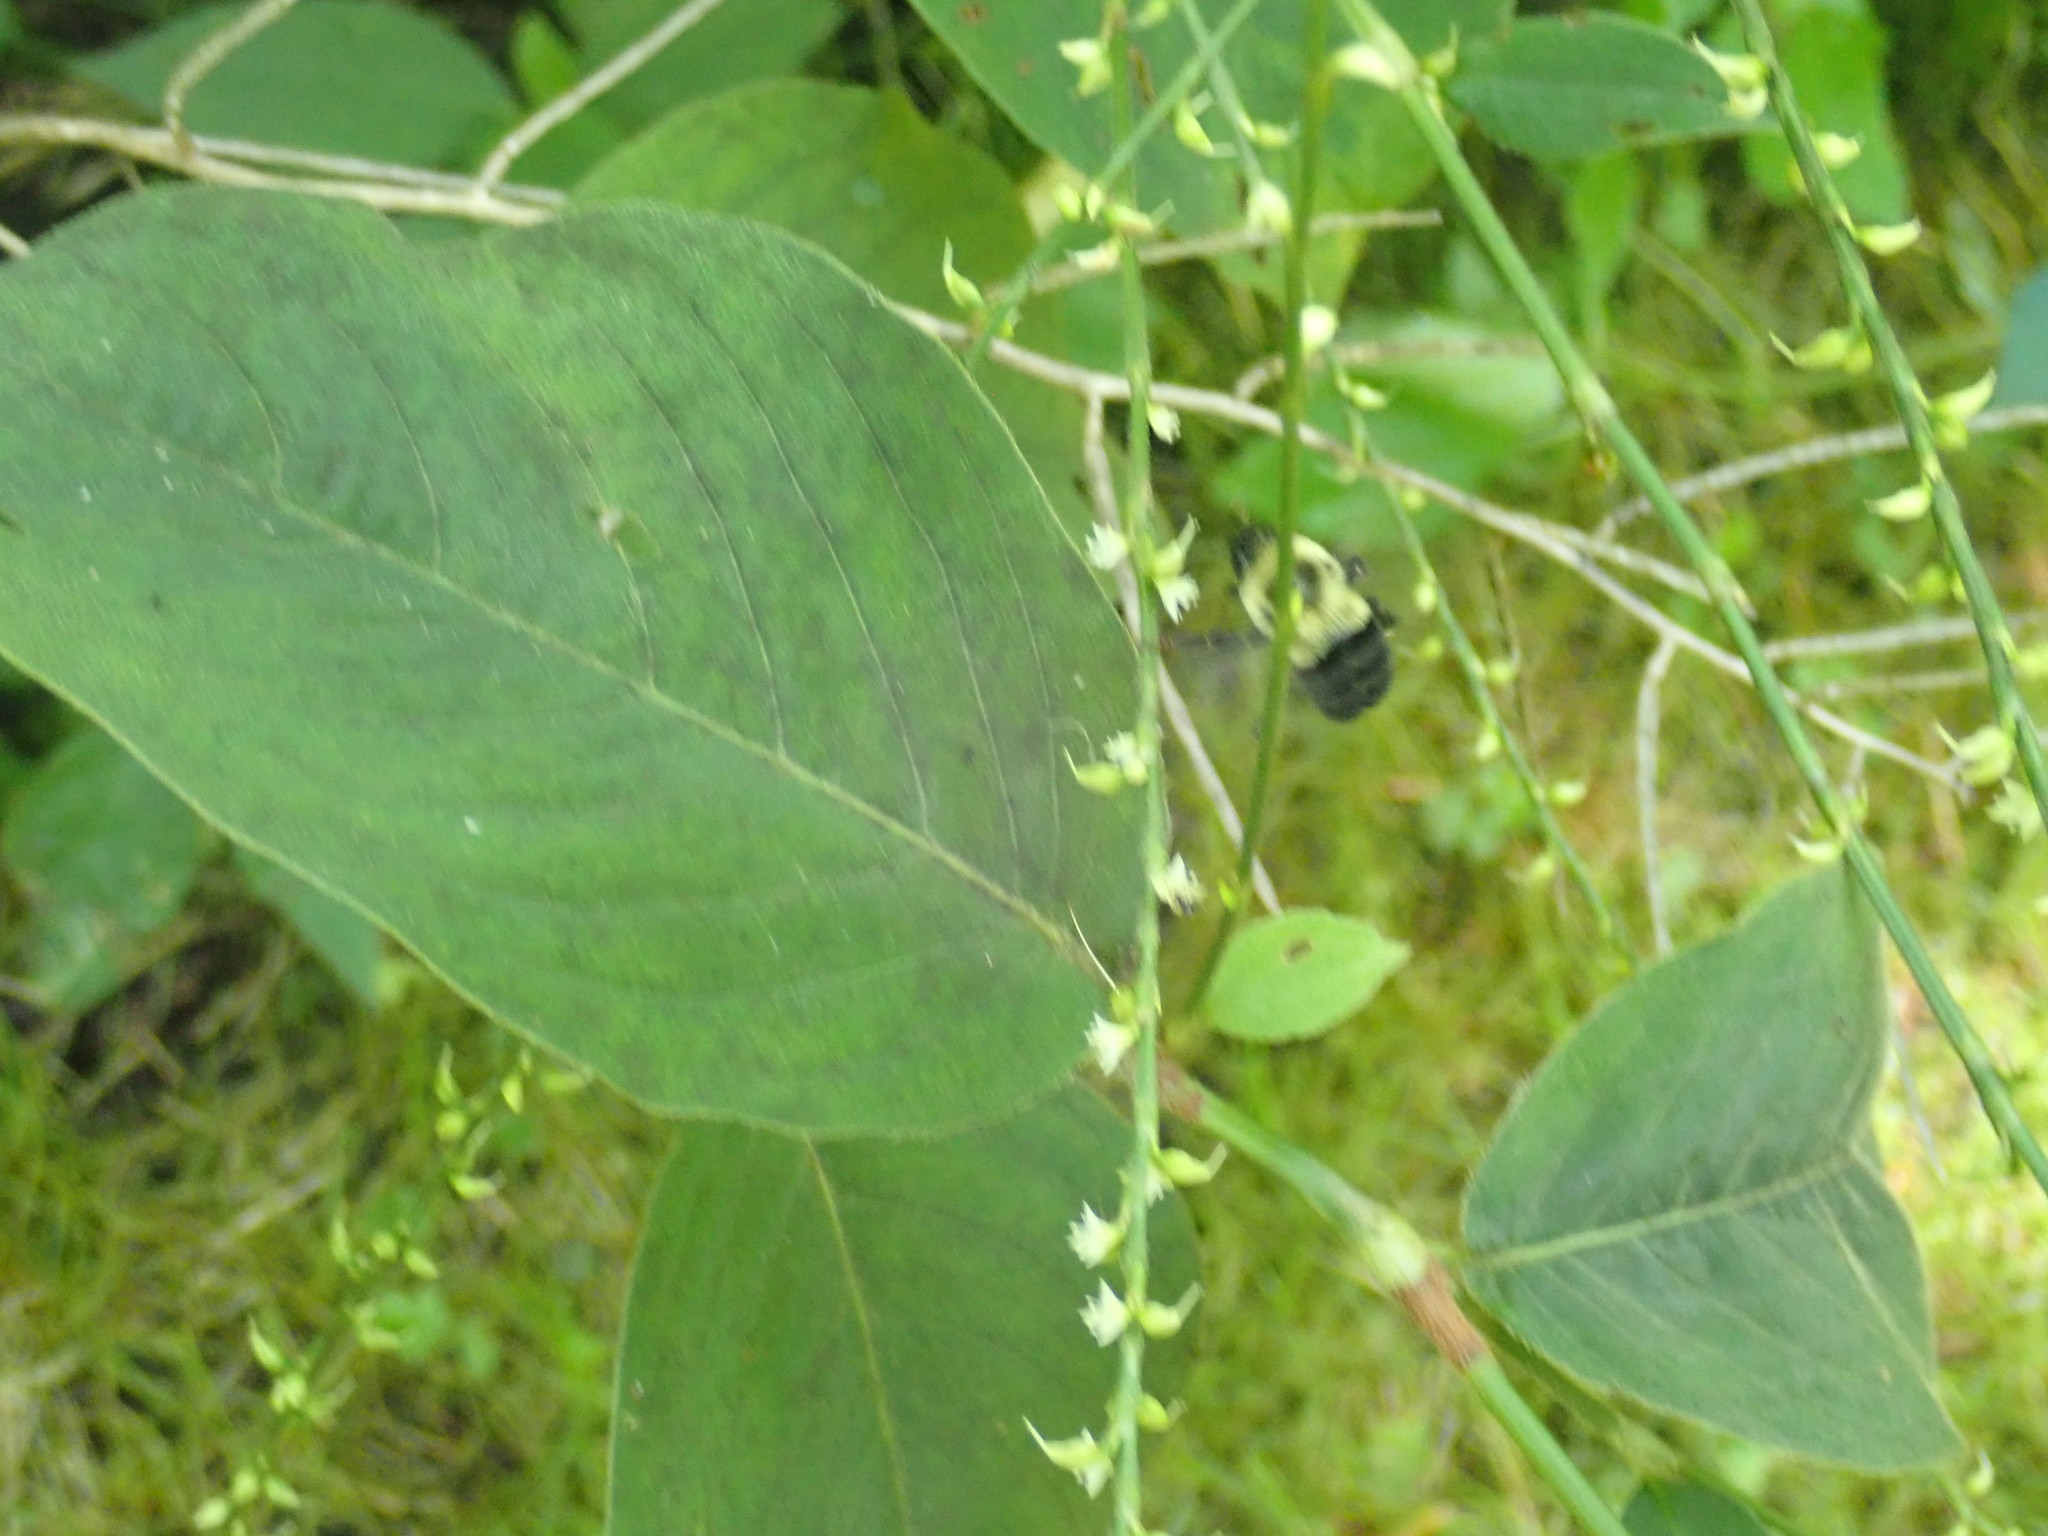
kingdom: Animalia
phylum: Arthropoda
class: Insecta
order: Hymenoptera
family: Apidae
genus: Bombus
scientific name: Bombus impatiens
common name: Common eastern bumble bee
